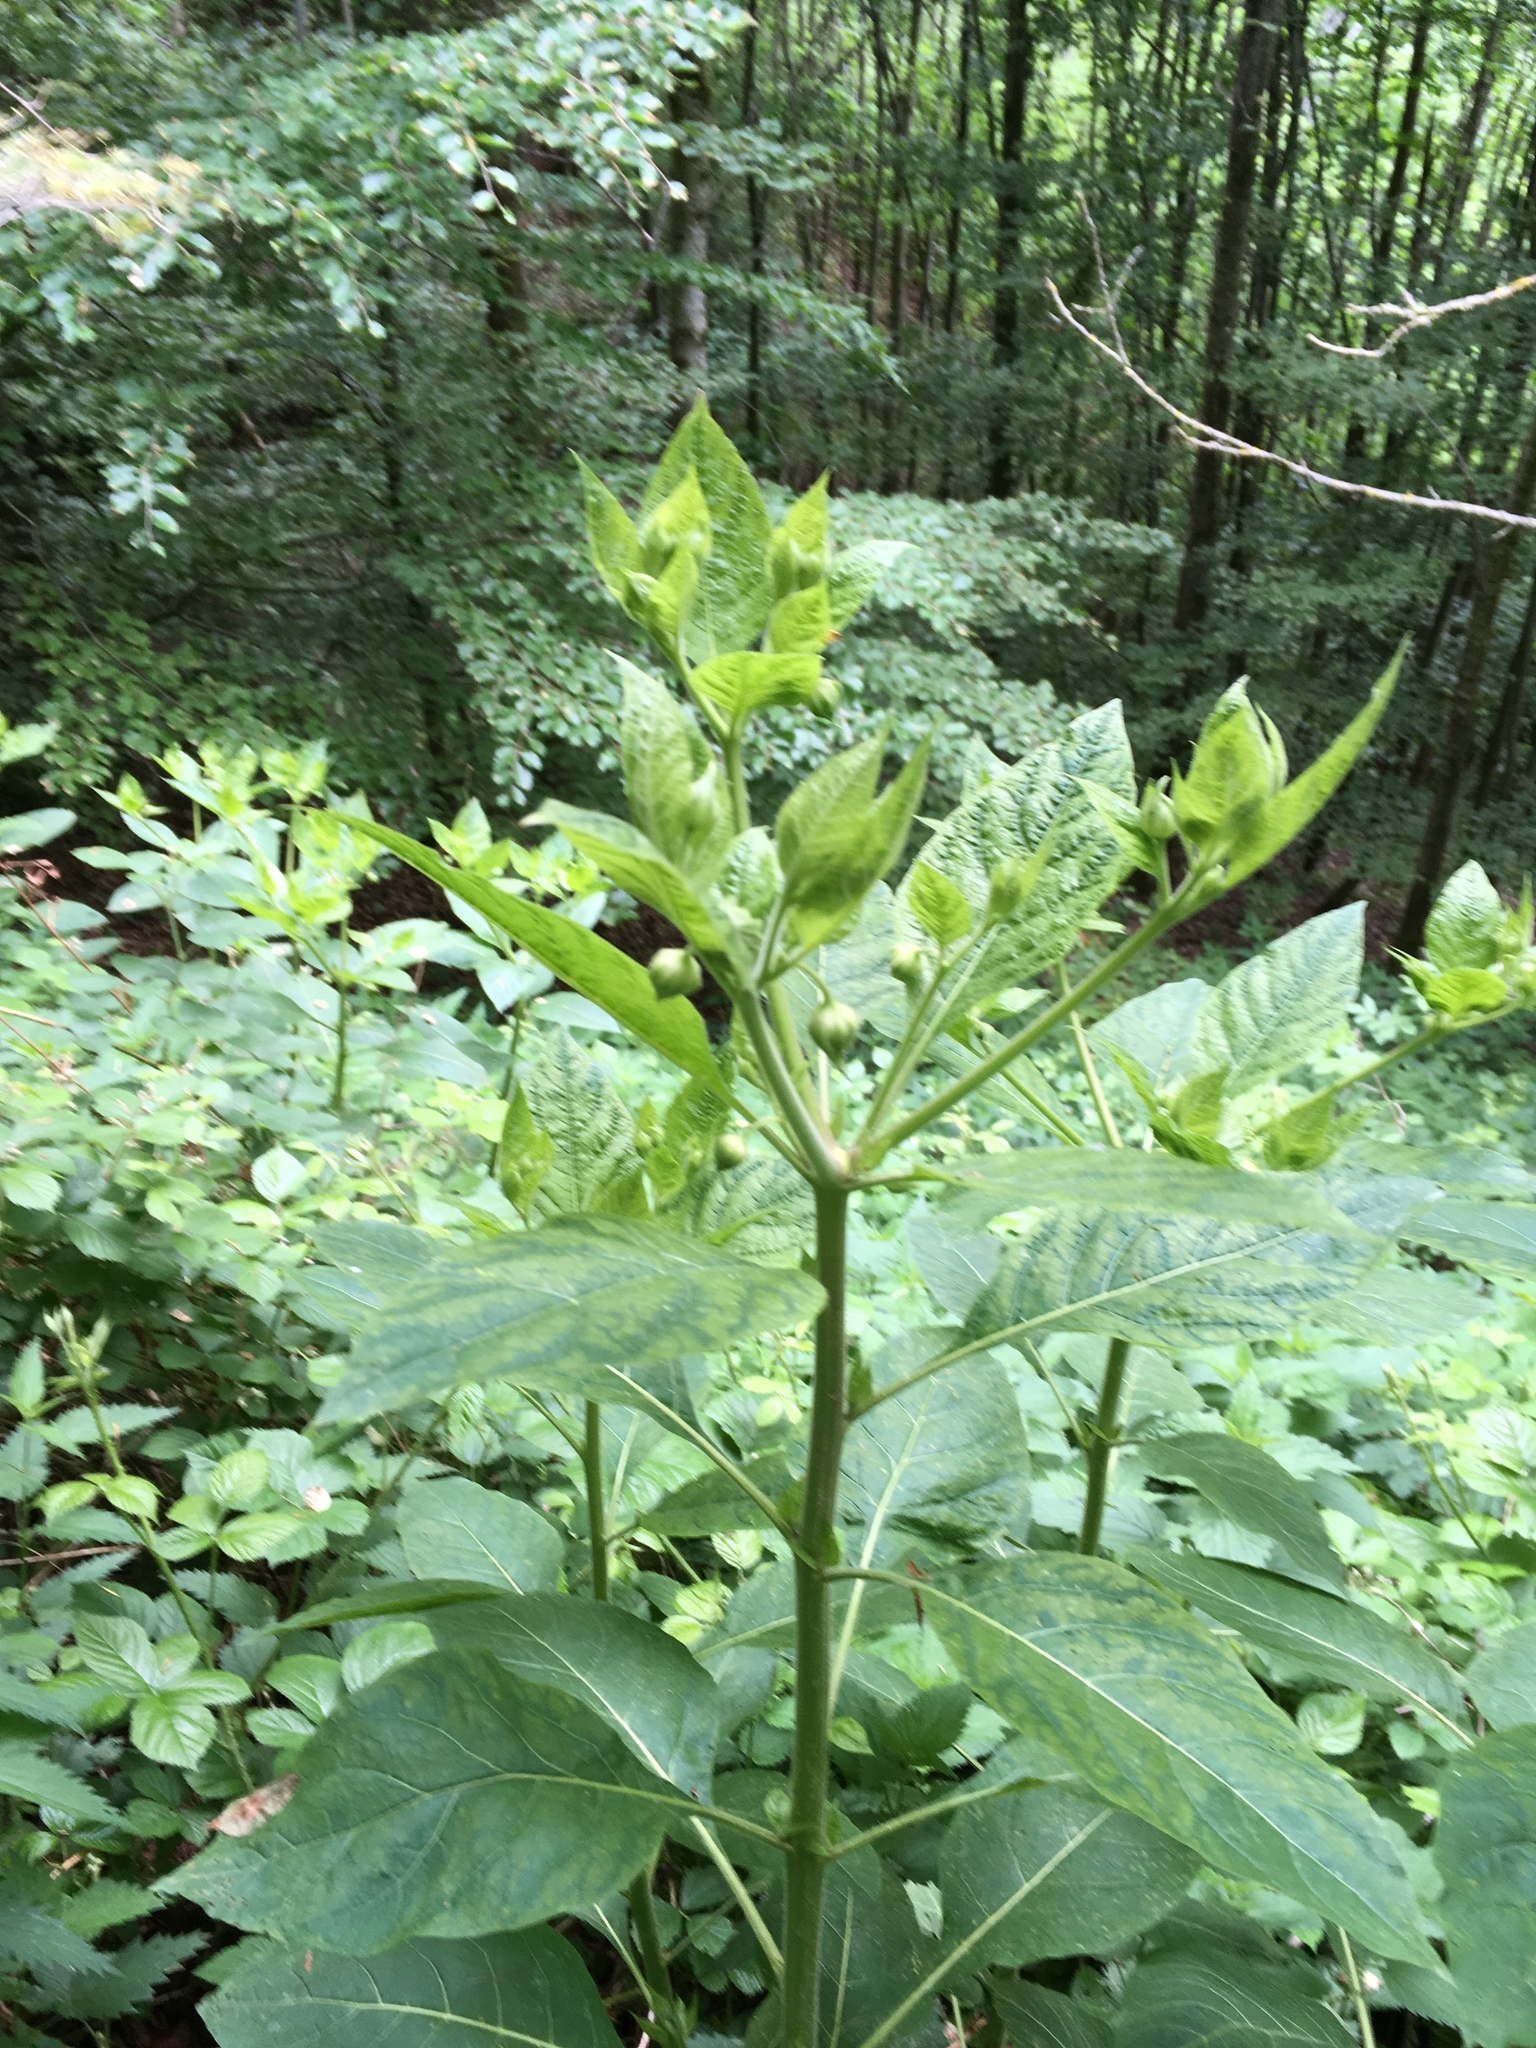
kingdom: Plantae
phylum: Tracheophyta
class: Magnoliopsida
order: Solanales
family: Solanaceae
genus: Atropa
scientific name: Atropa belladonna
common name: Deadly nightshade
